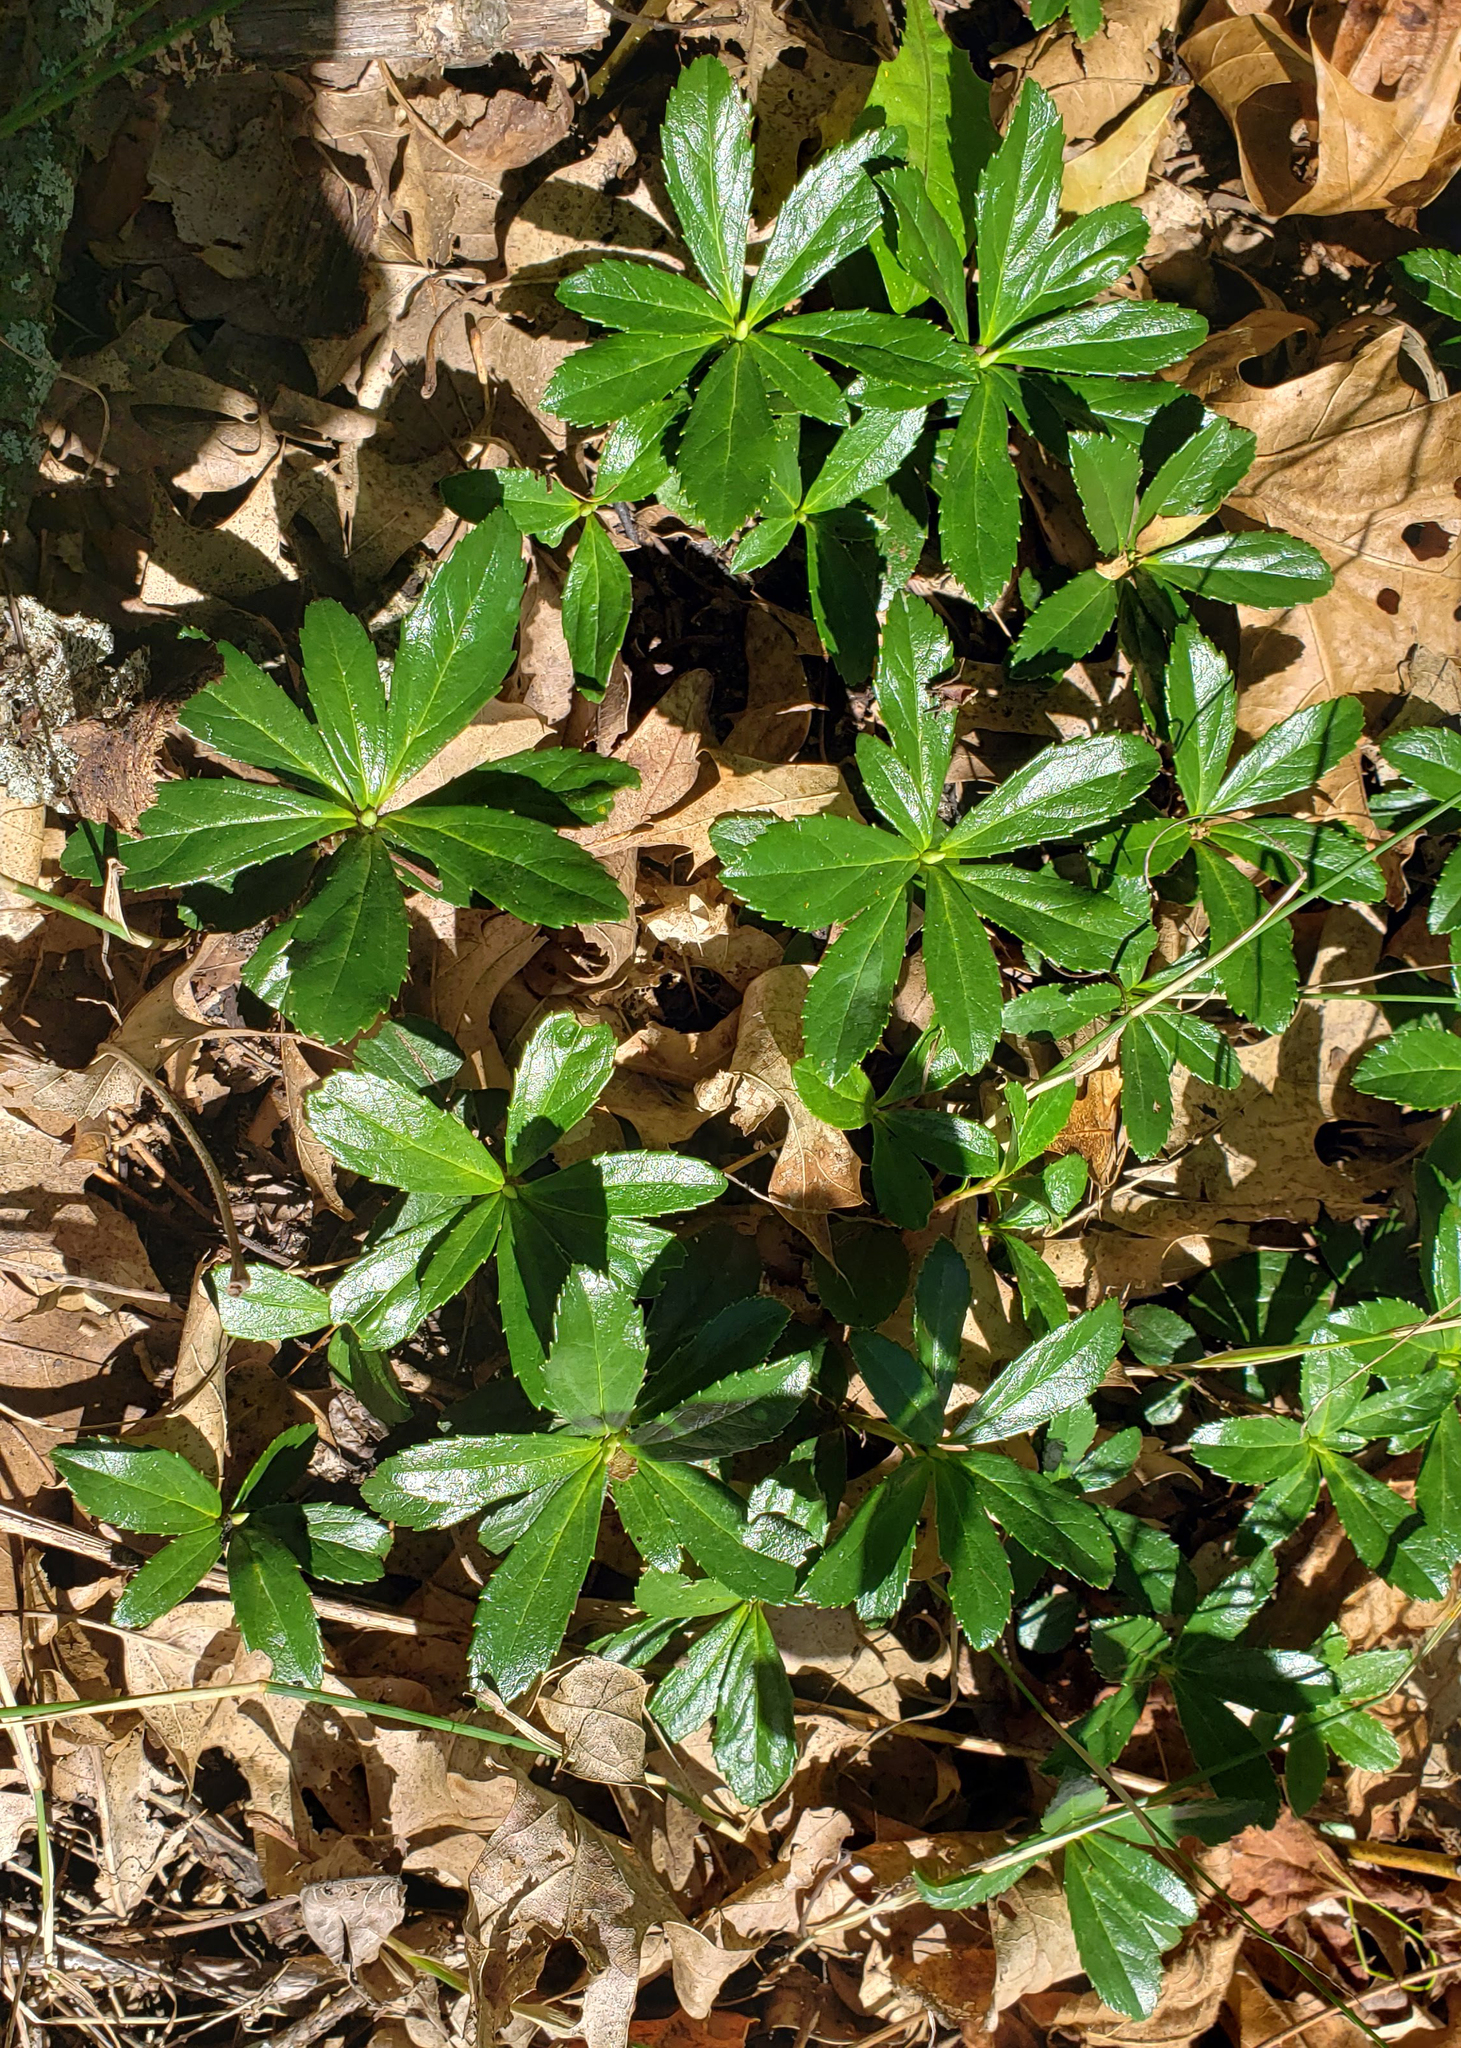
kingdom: Plantae
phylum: Tracheophyta
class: Magnoliopsida
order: Ericales
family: Ericaceae
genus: Chimaphila
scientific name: Chimaphila umbellata
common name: Pipsissewa
